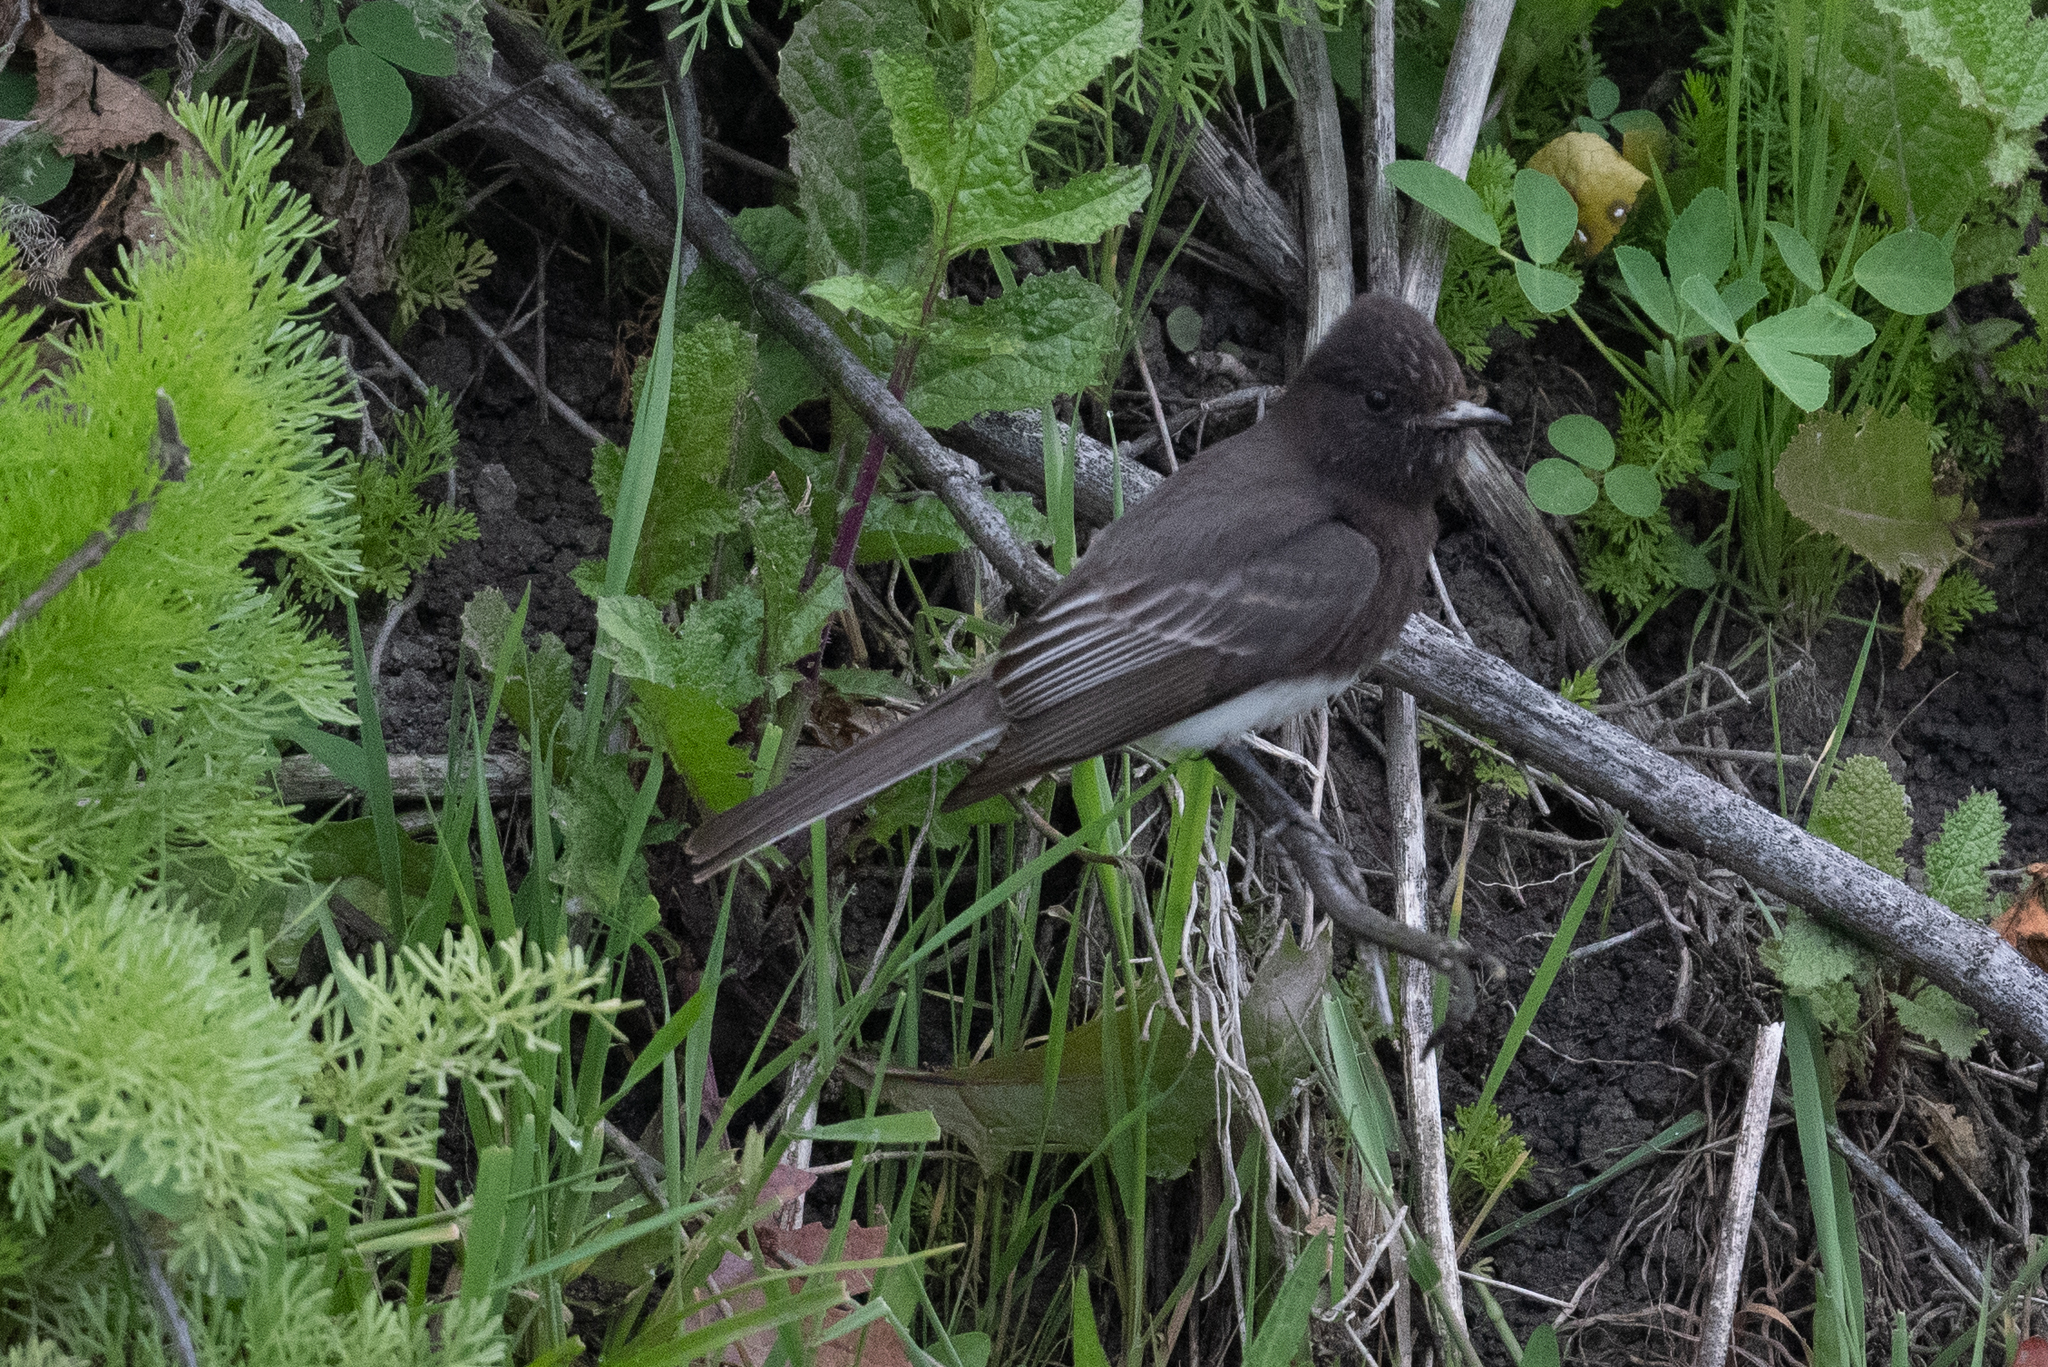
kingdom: Animalia
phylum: Chordata
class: Aves
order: Passeriformes
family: Tyrannidae
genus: Sayornis
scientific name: Sayornis nigricans
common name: Black phoebe
